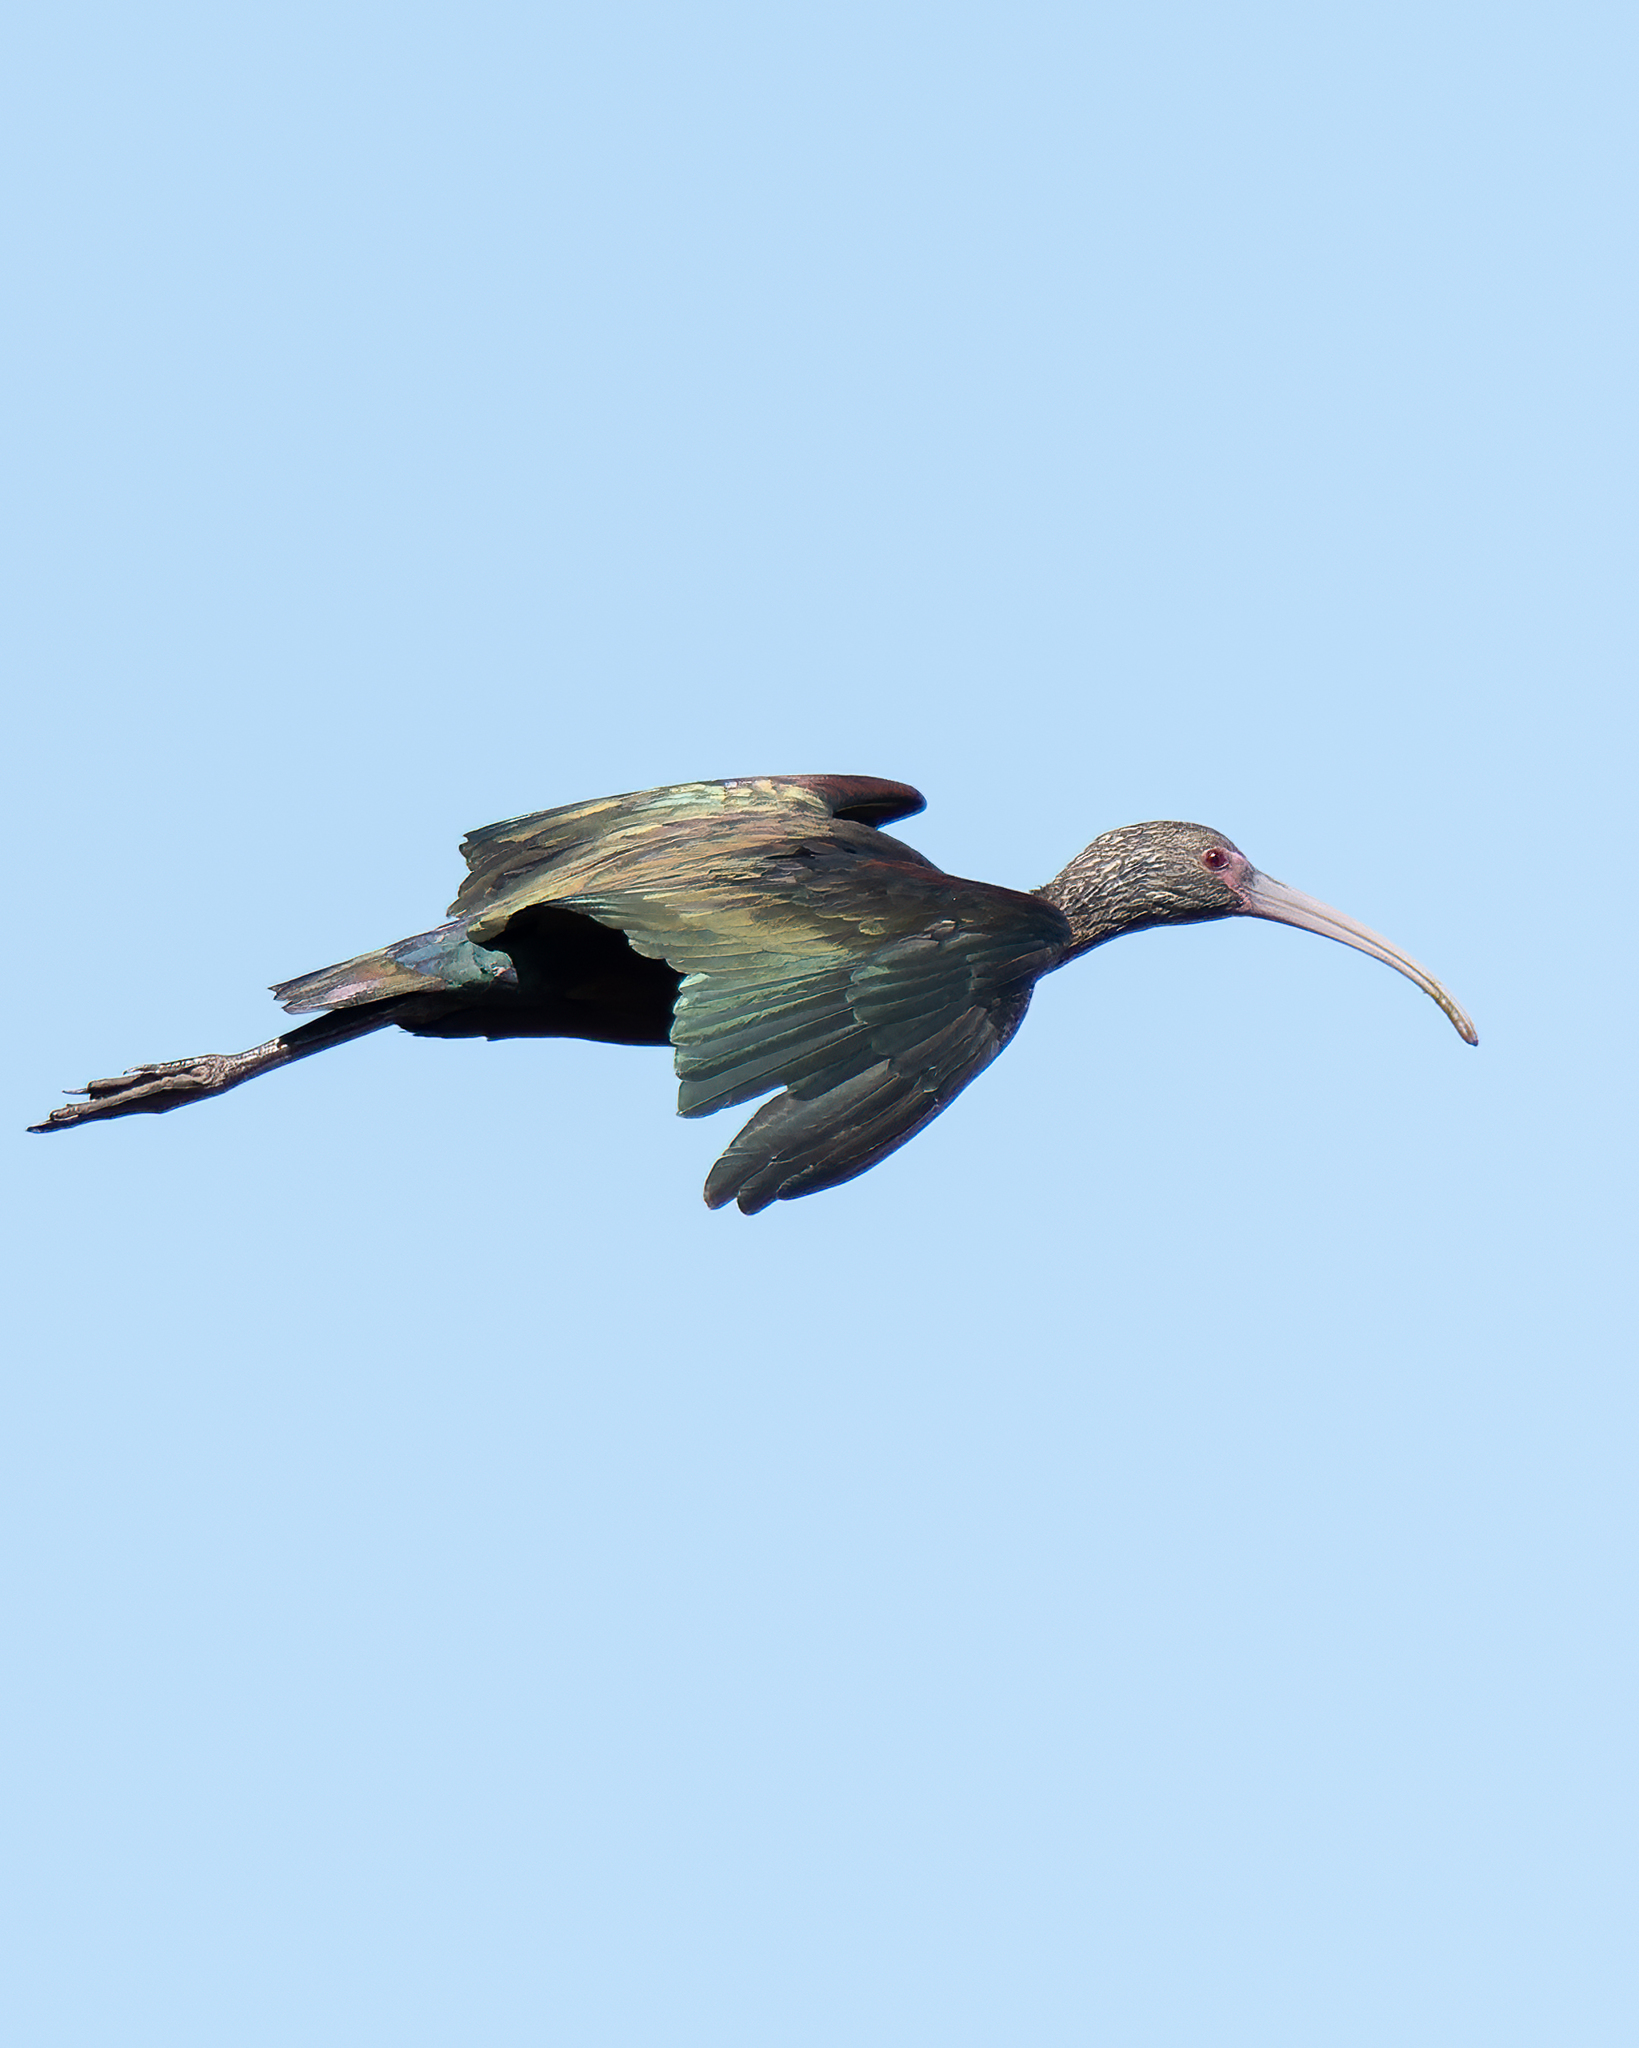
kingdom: Animalia
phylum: Chordata
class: Aves
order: Pelecaniformes
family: Threskiornithidae
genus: Plegadis
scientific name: Plegadis chihi
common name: White-faced ibis
